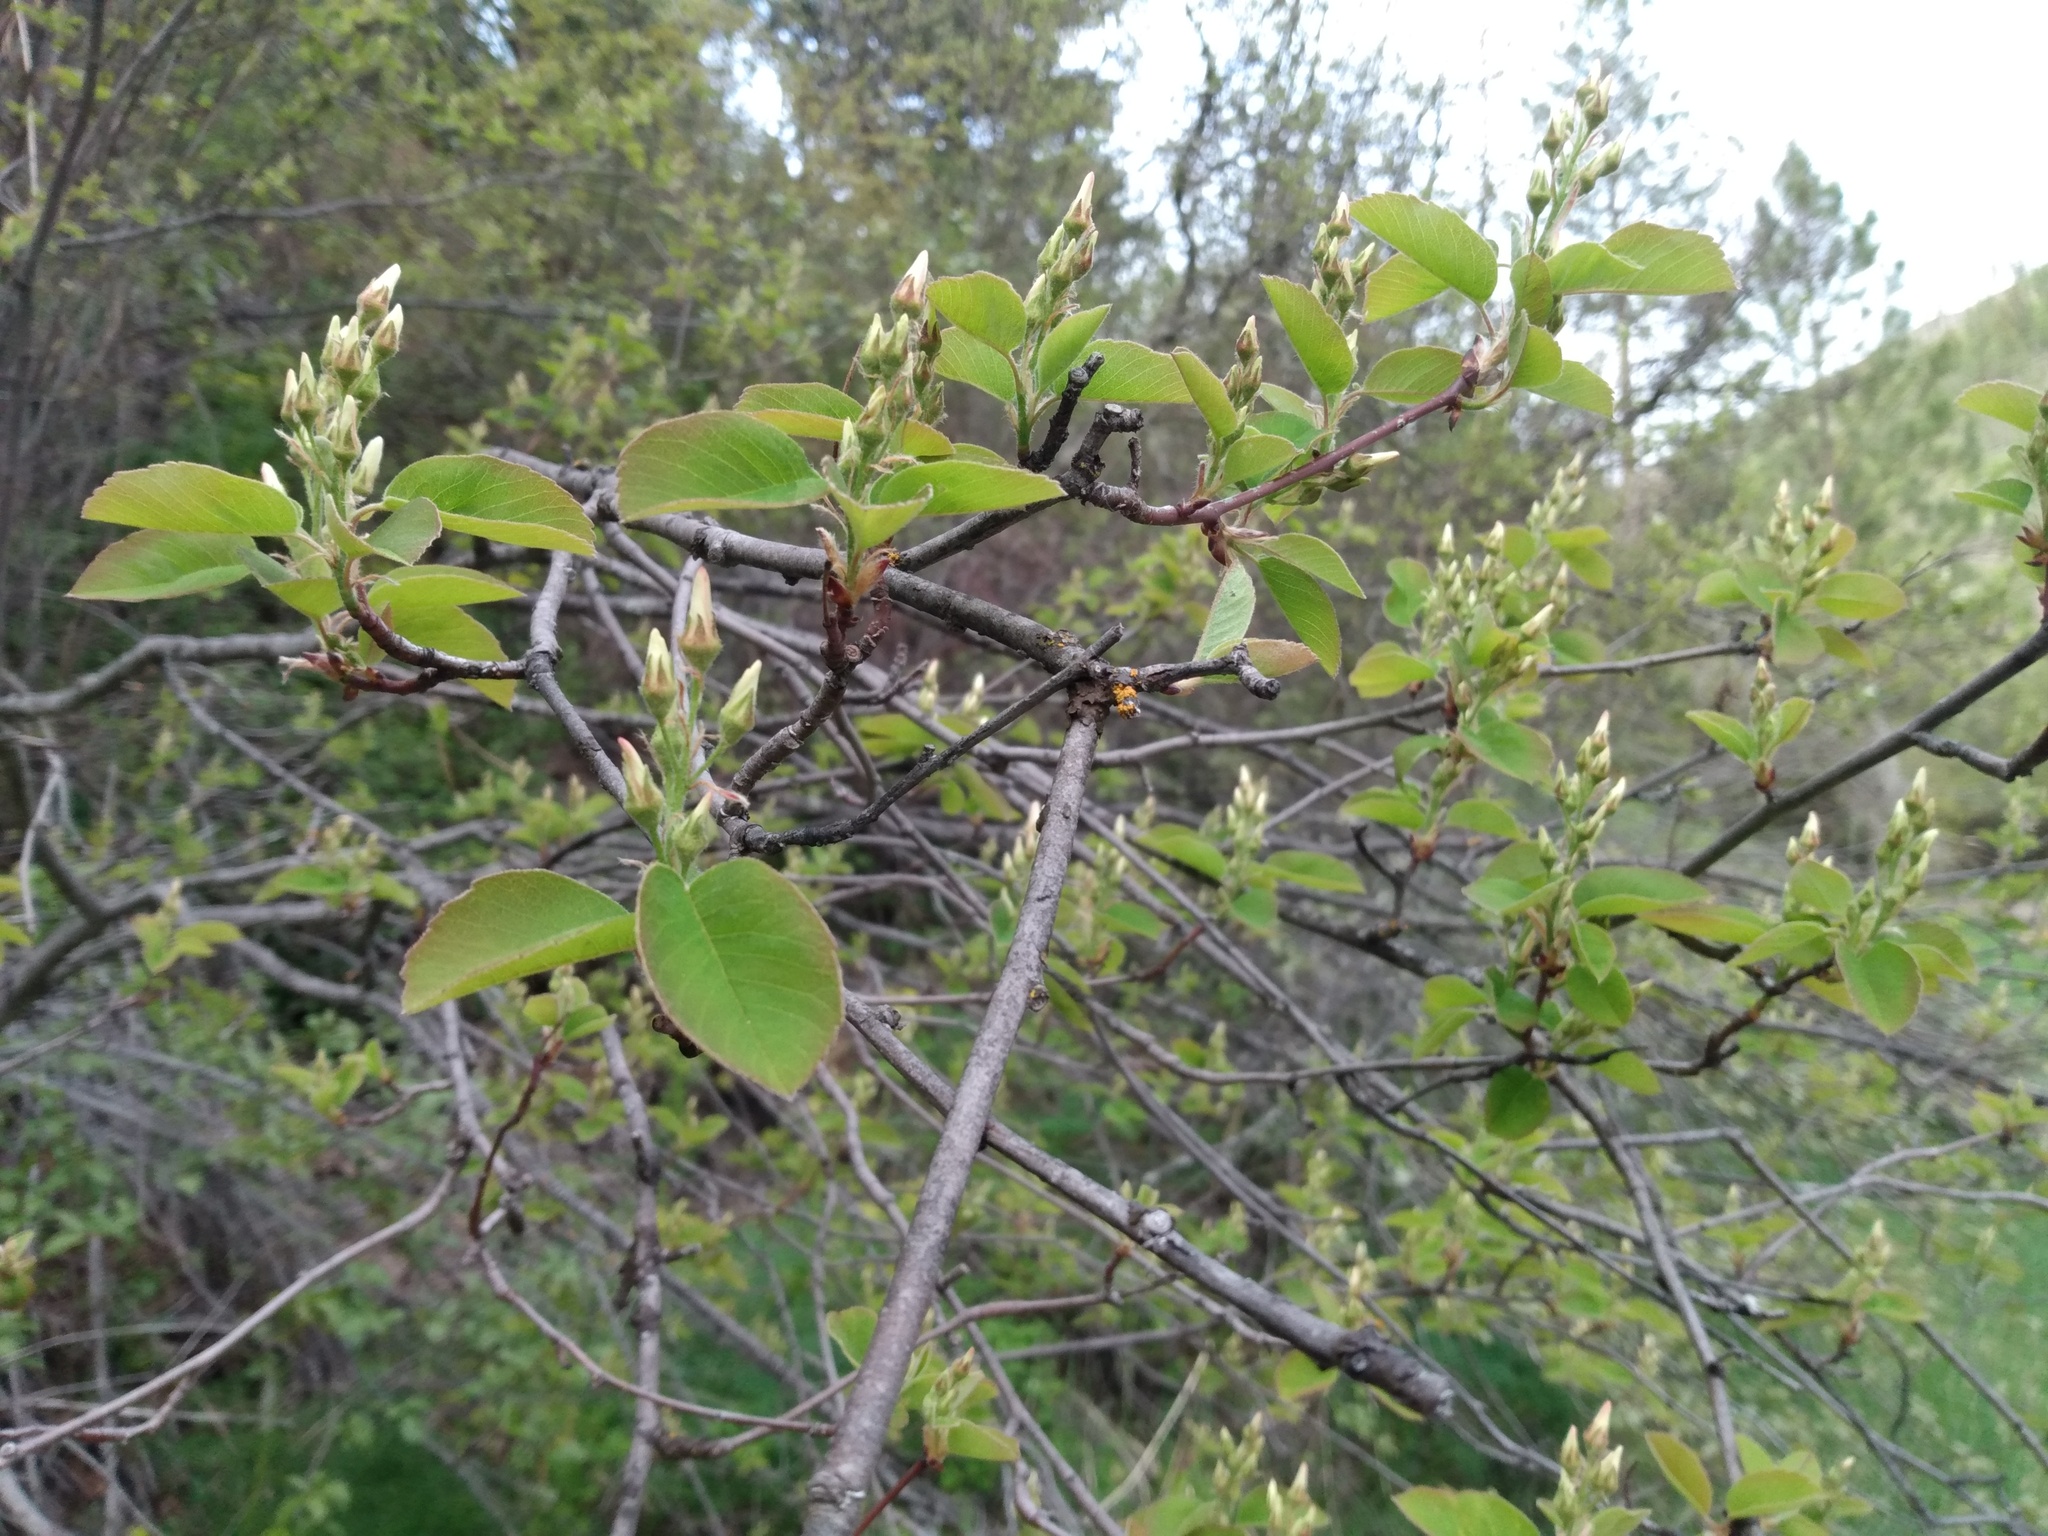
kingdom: Plantae
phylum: Tracheophyta
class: Magnoliopsida
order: Rosales
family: Rosaceae
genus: Amelanchier
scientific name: Amelanchier alnifolia
